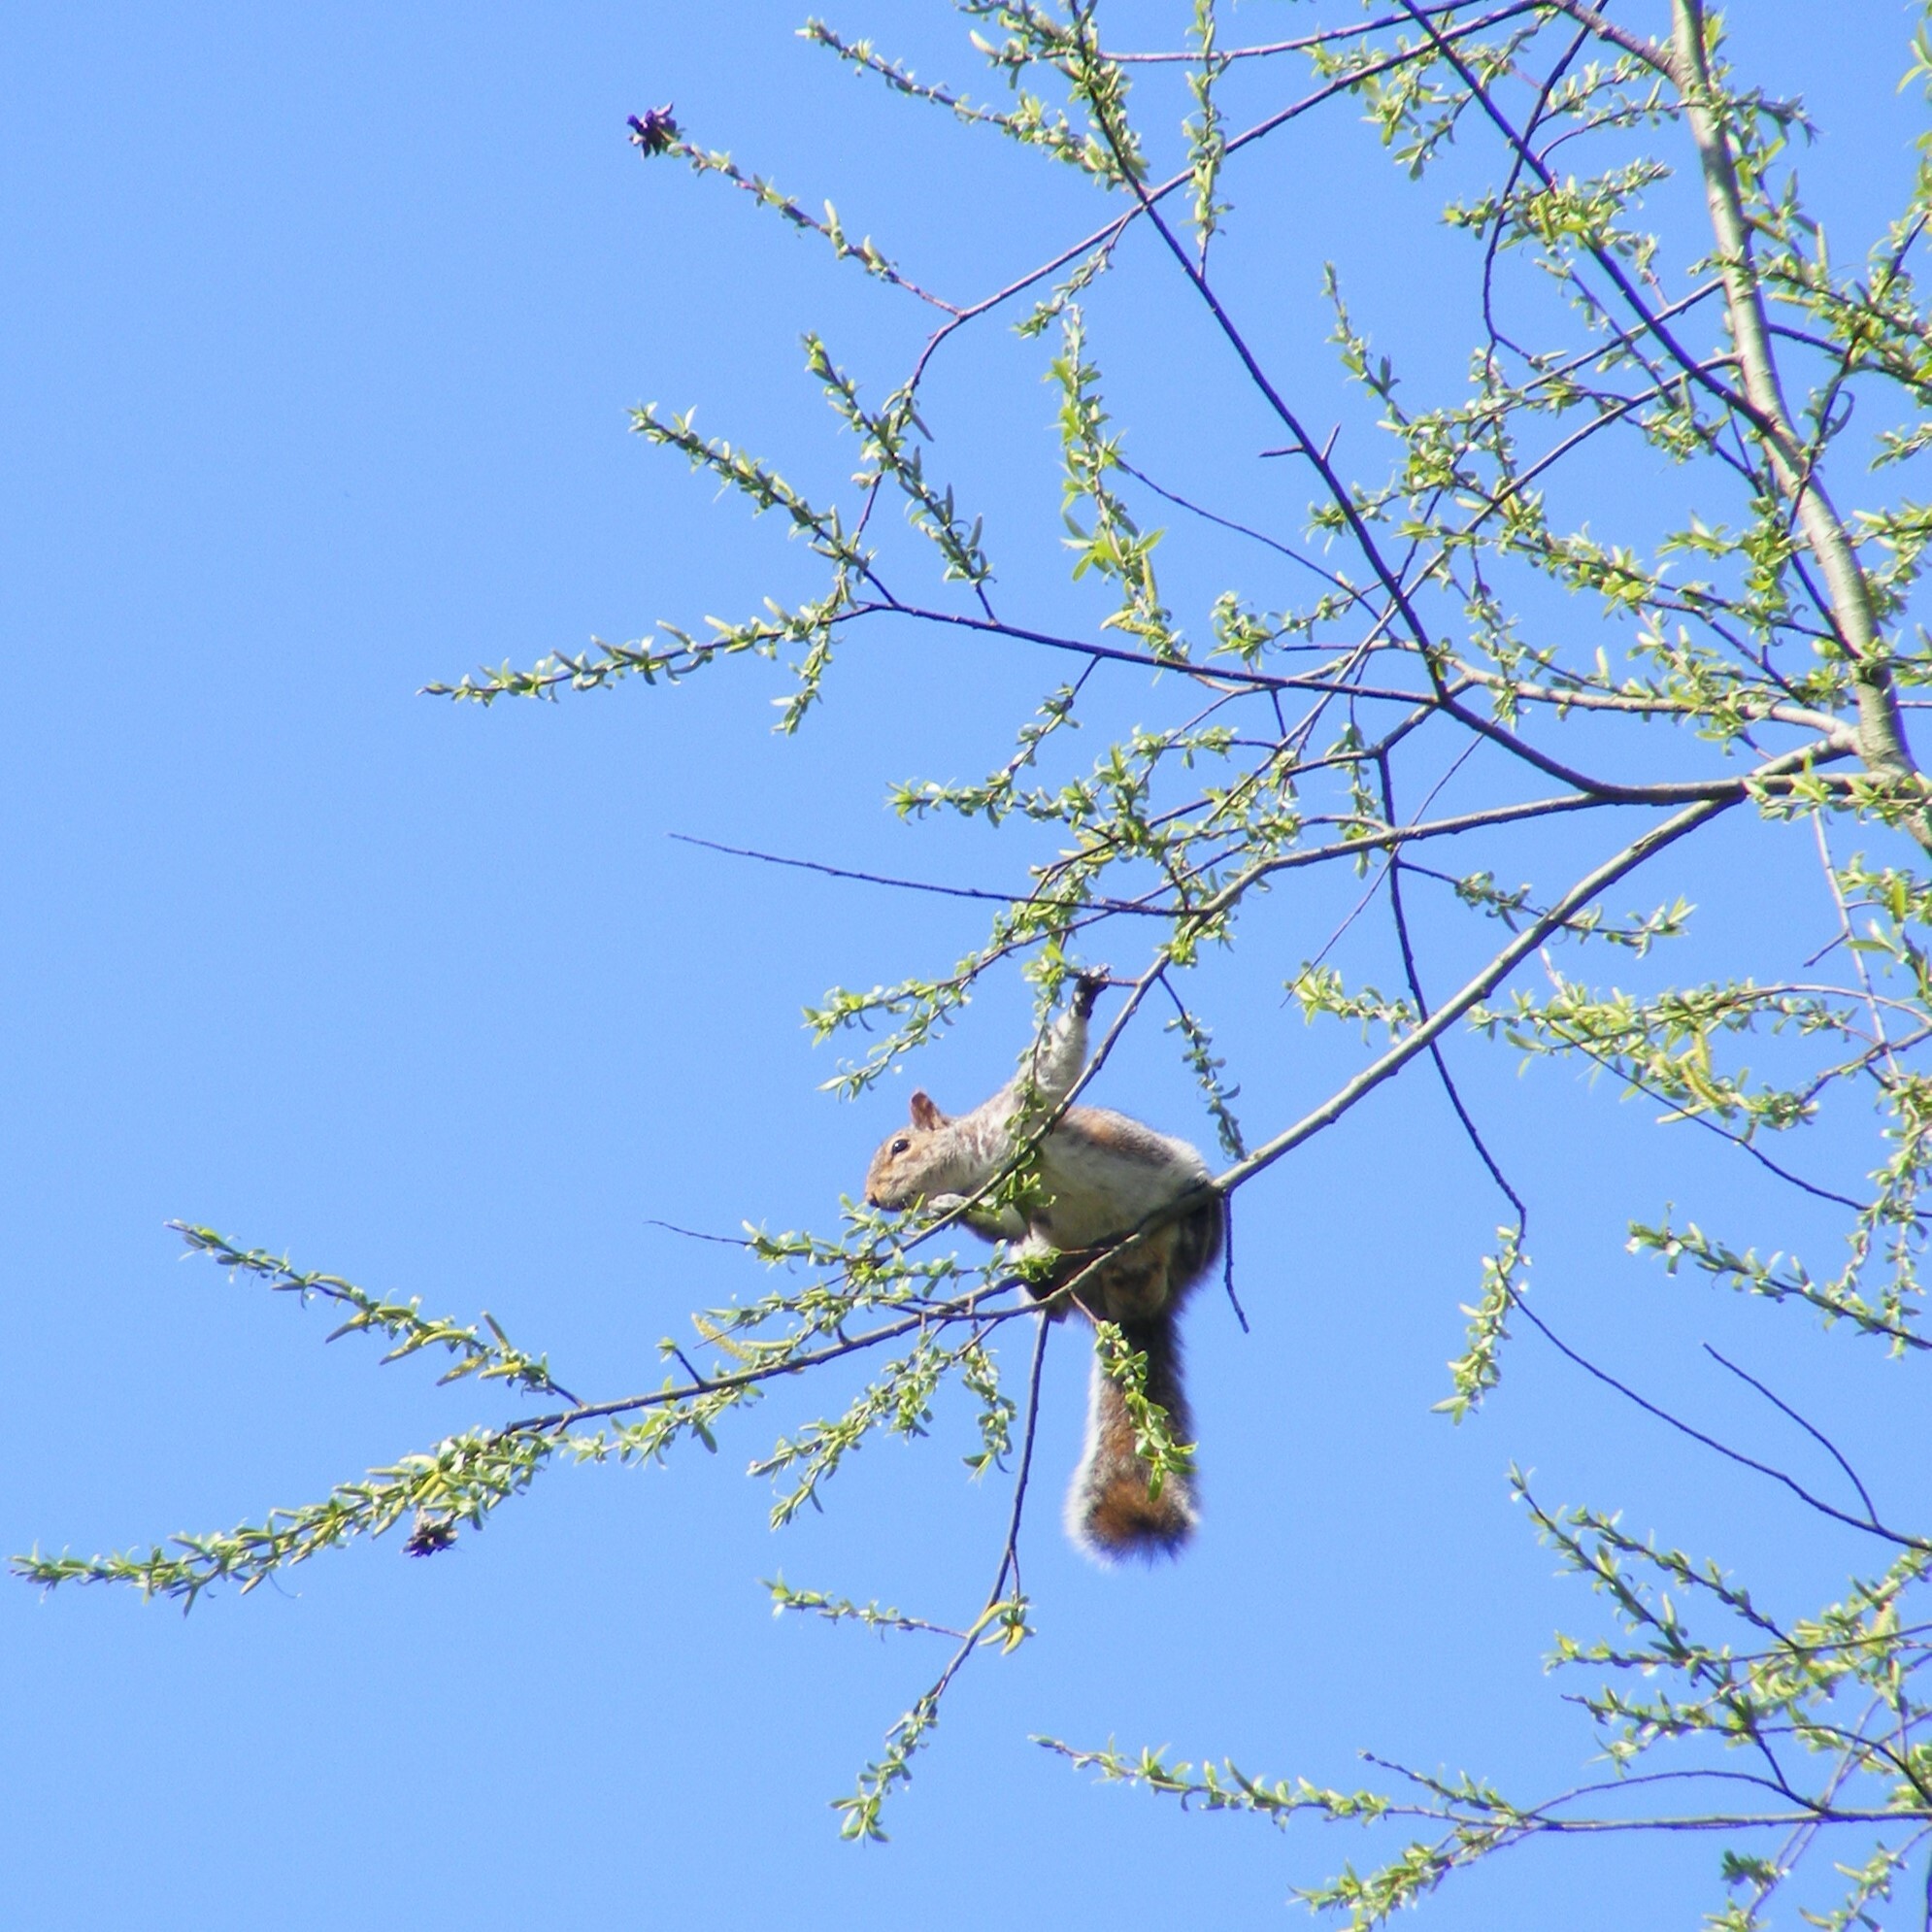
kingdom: Animalia
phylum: Chordata
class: Mammalia
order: Rodentia
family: Sciuridae
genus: Sciurus
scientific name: Sciurus carolinensis
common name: Eastern gray squirrel
